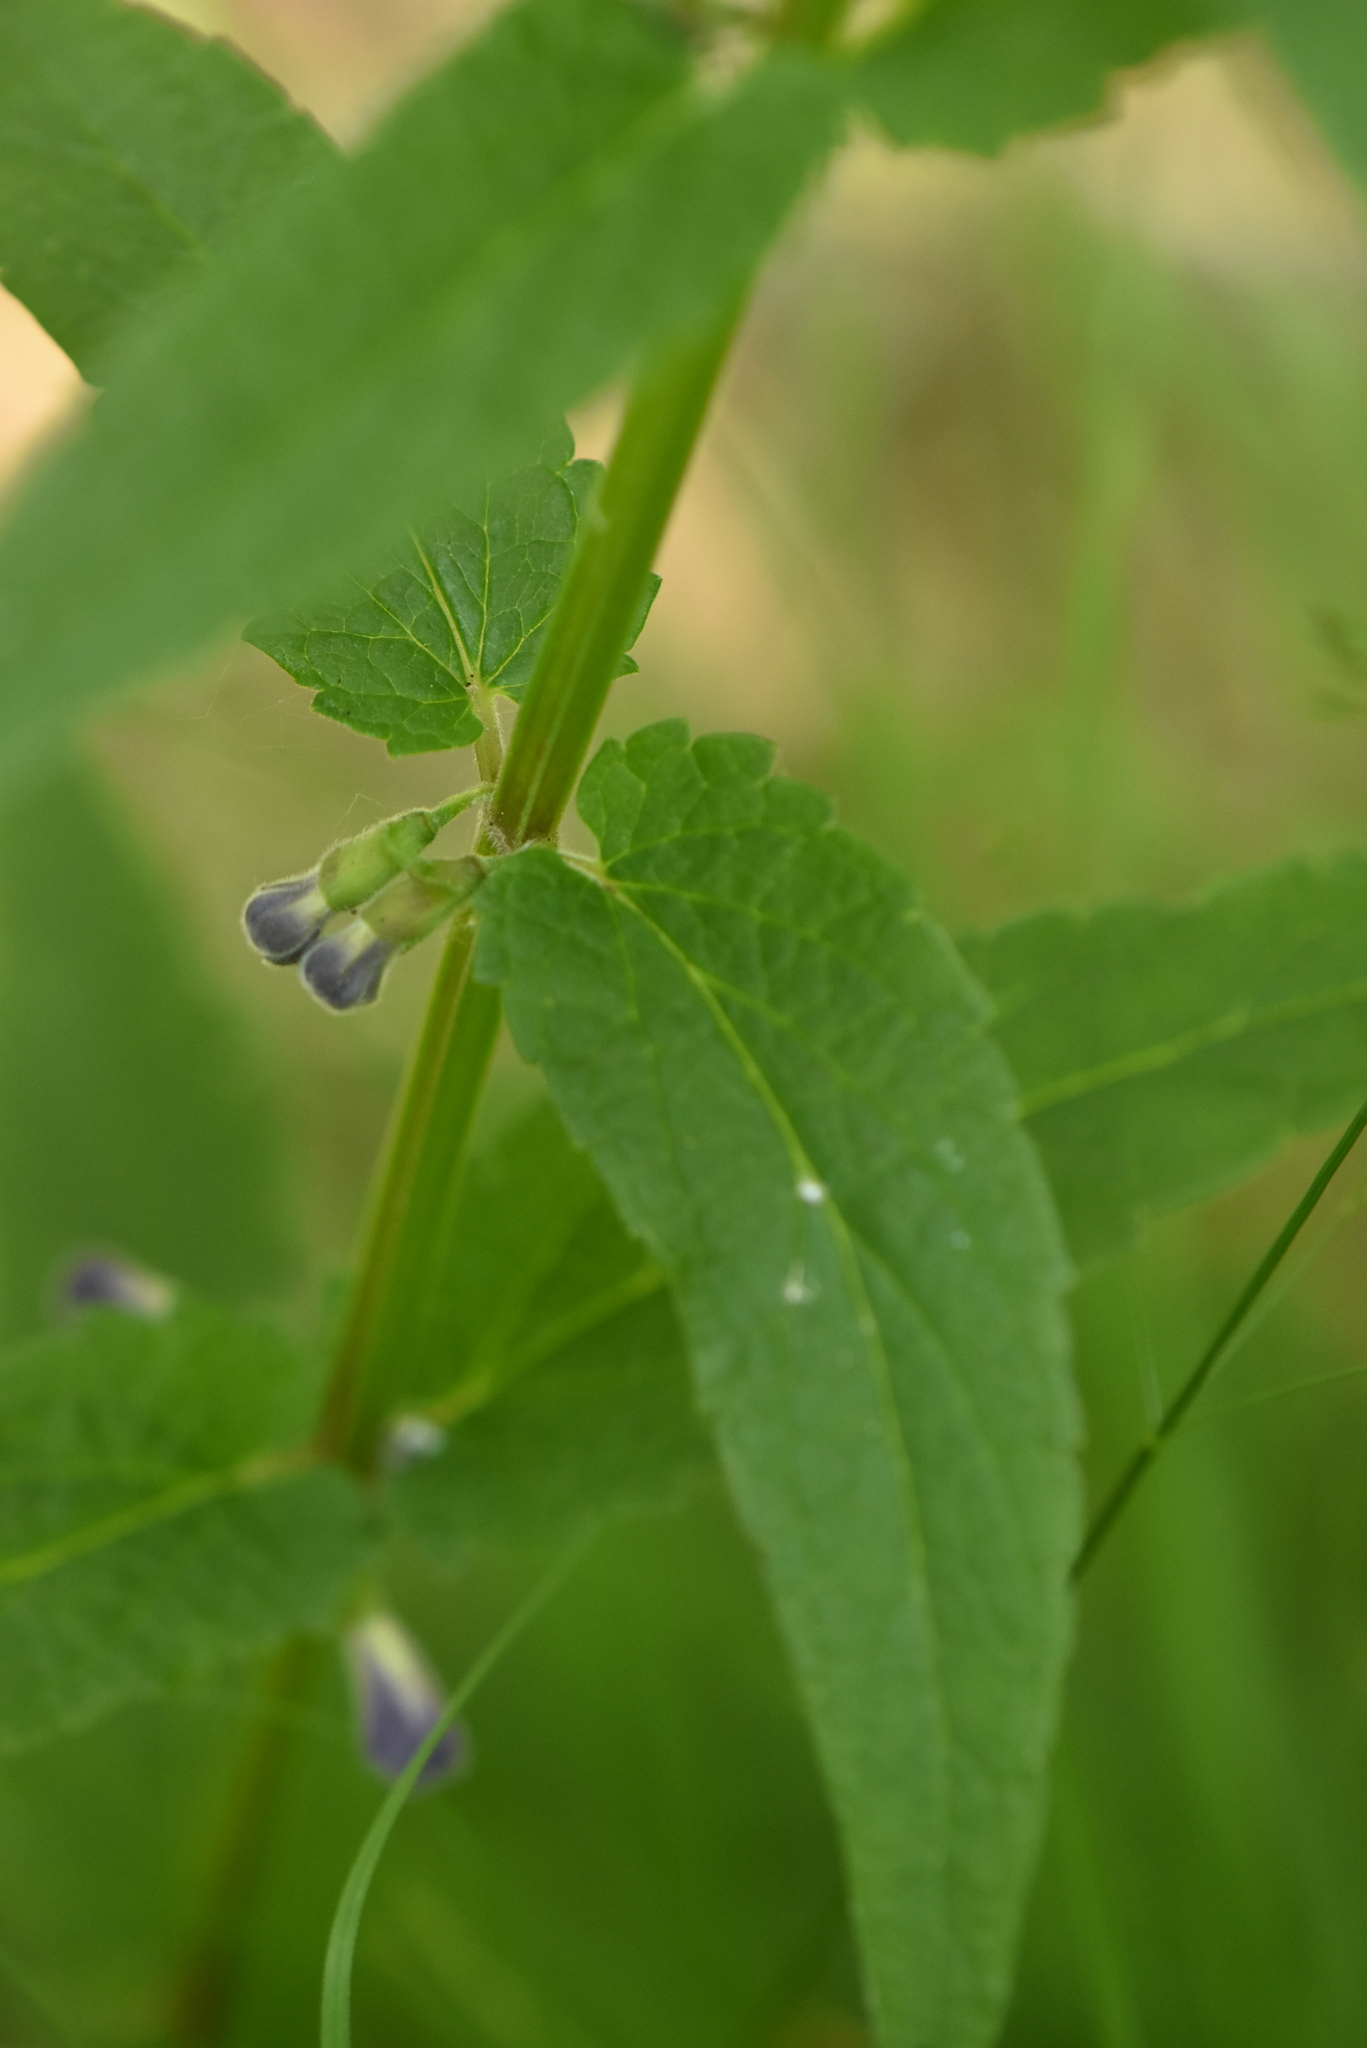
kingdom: Plantae
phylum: Tracheophyta
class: Magnoliopsida
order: Lamiales
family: Lamiaceae
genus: Scutellaria
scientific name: Scutellaria galericulata
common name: Skullcap
